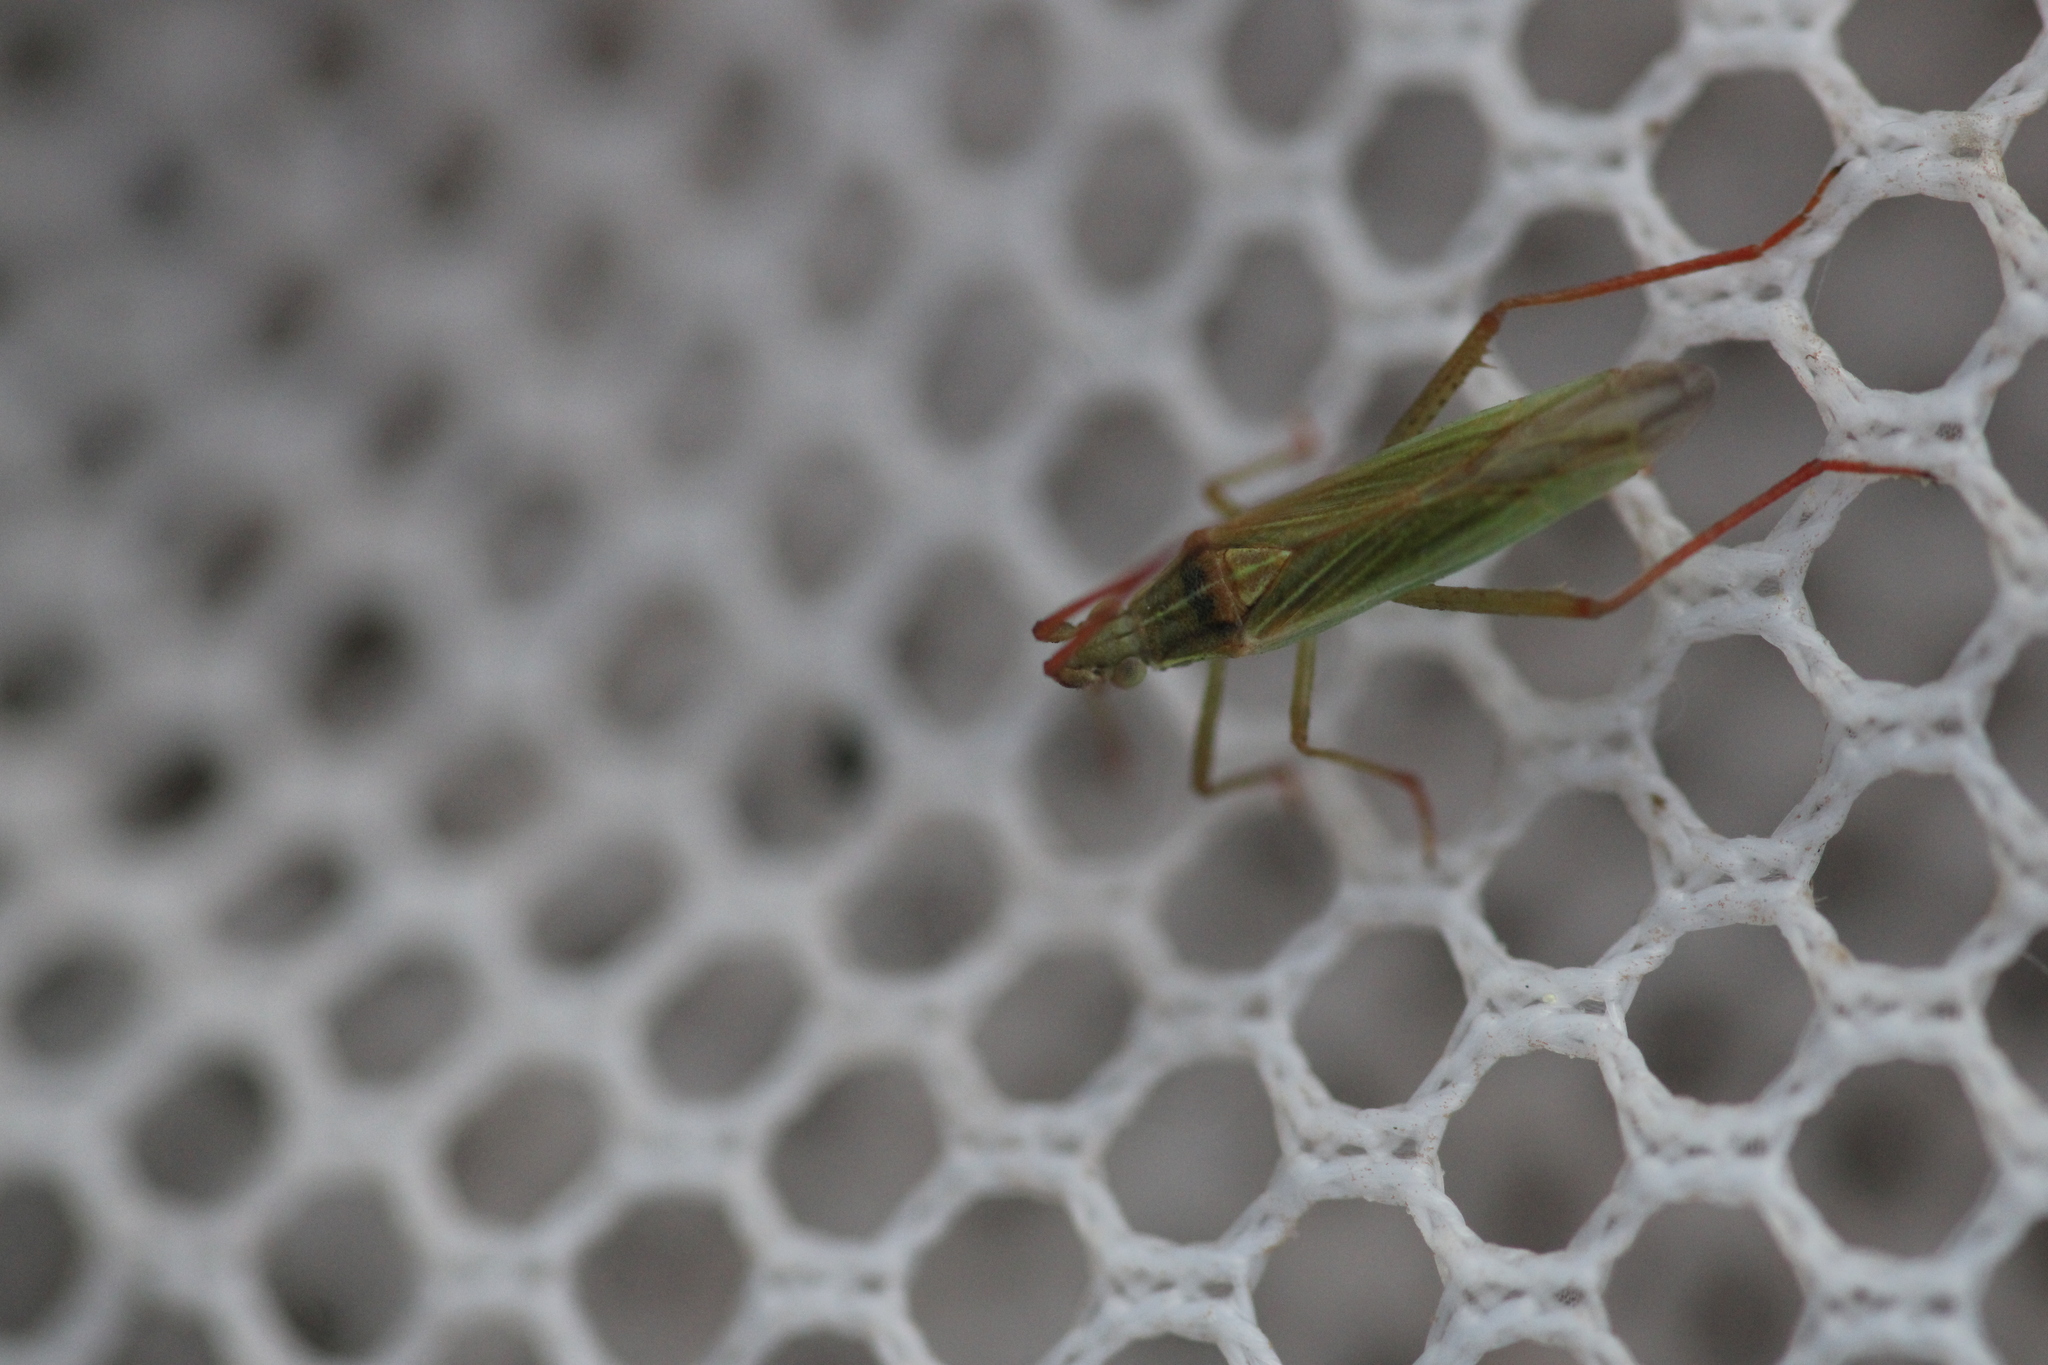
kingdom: Animalia
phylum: Arthropoda
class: Insecta
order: Hemiptera
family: Miridae
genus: Stenodema
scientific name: Stenodema calcarata
